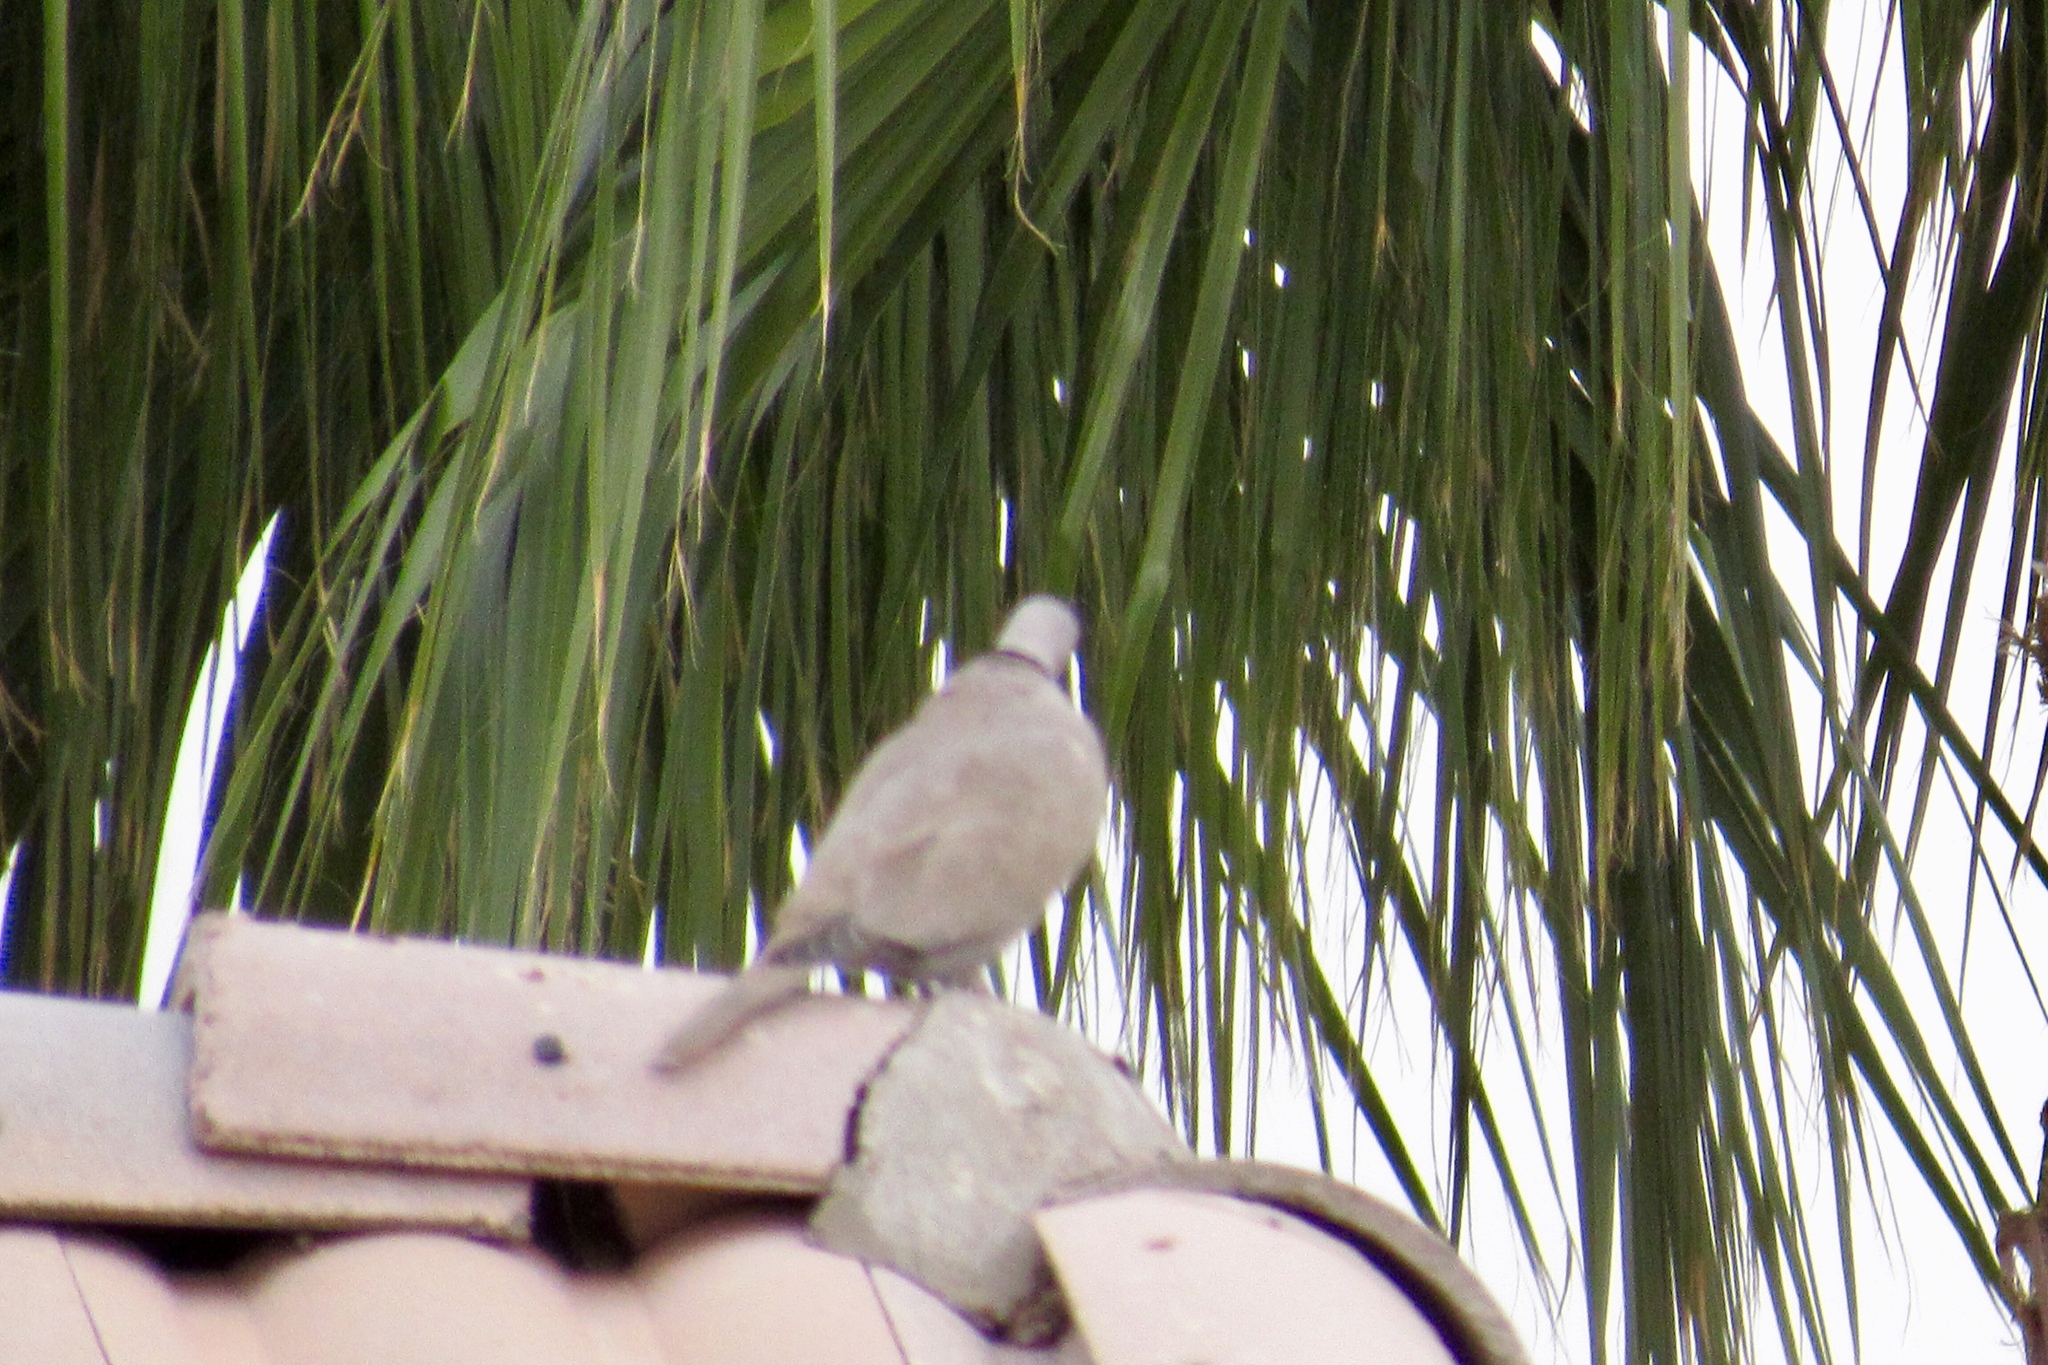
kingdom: Animalia
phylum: Chordata
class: Aves
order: Columbiformes
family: Columbidae
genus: Streptopelia
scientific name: Streptopelia decaocto
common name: Eurasian collared dove
